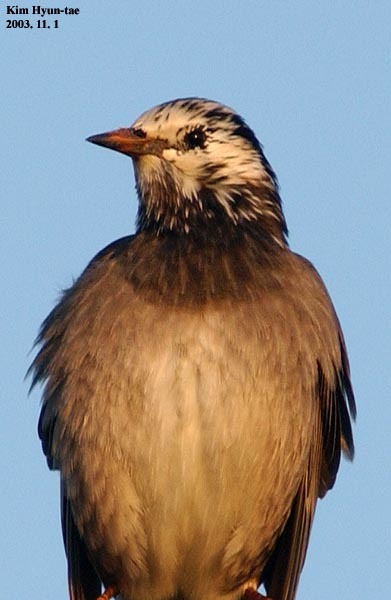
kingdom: Animalia
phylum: Chordata
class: Aves
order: Passeriformes
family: Sturnidae
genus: Spodiopsar
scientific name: Spodiopsar cineraceus
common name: White-cheeked starling
